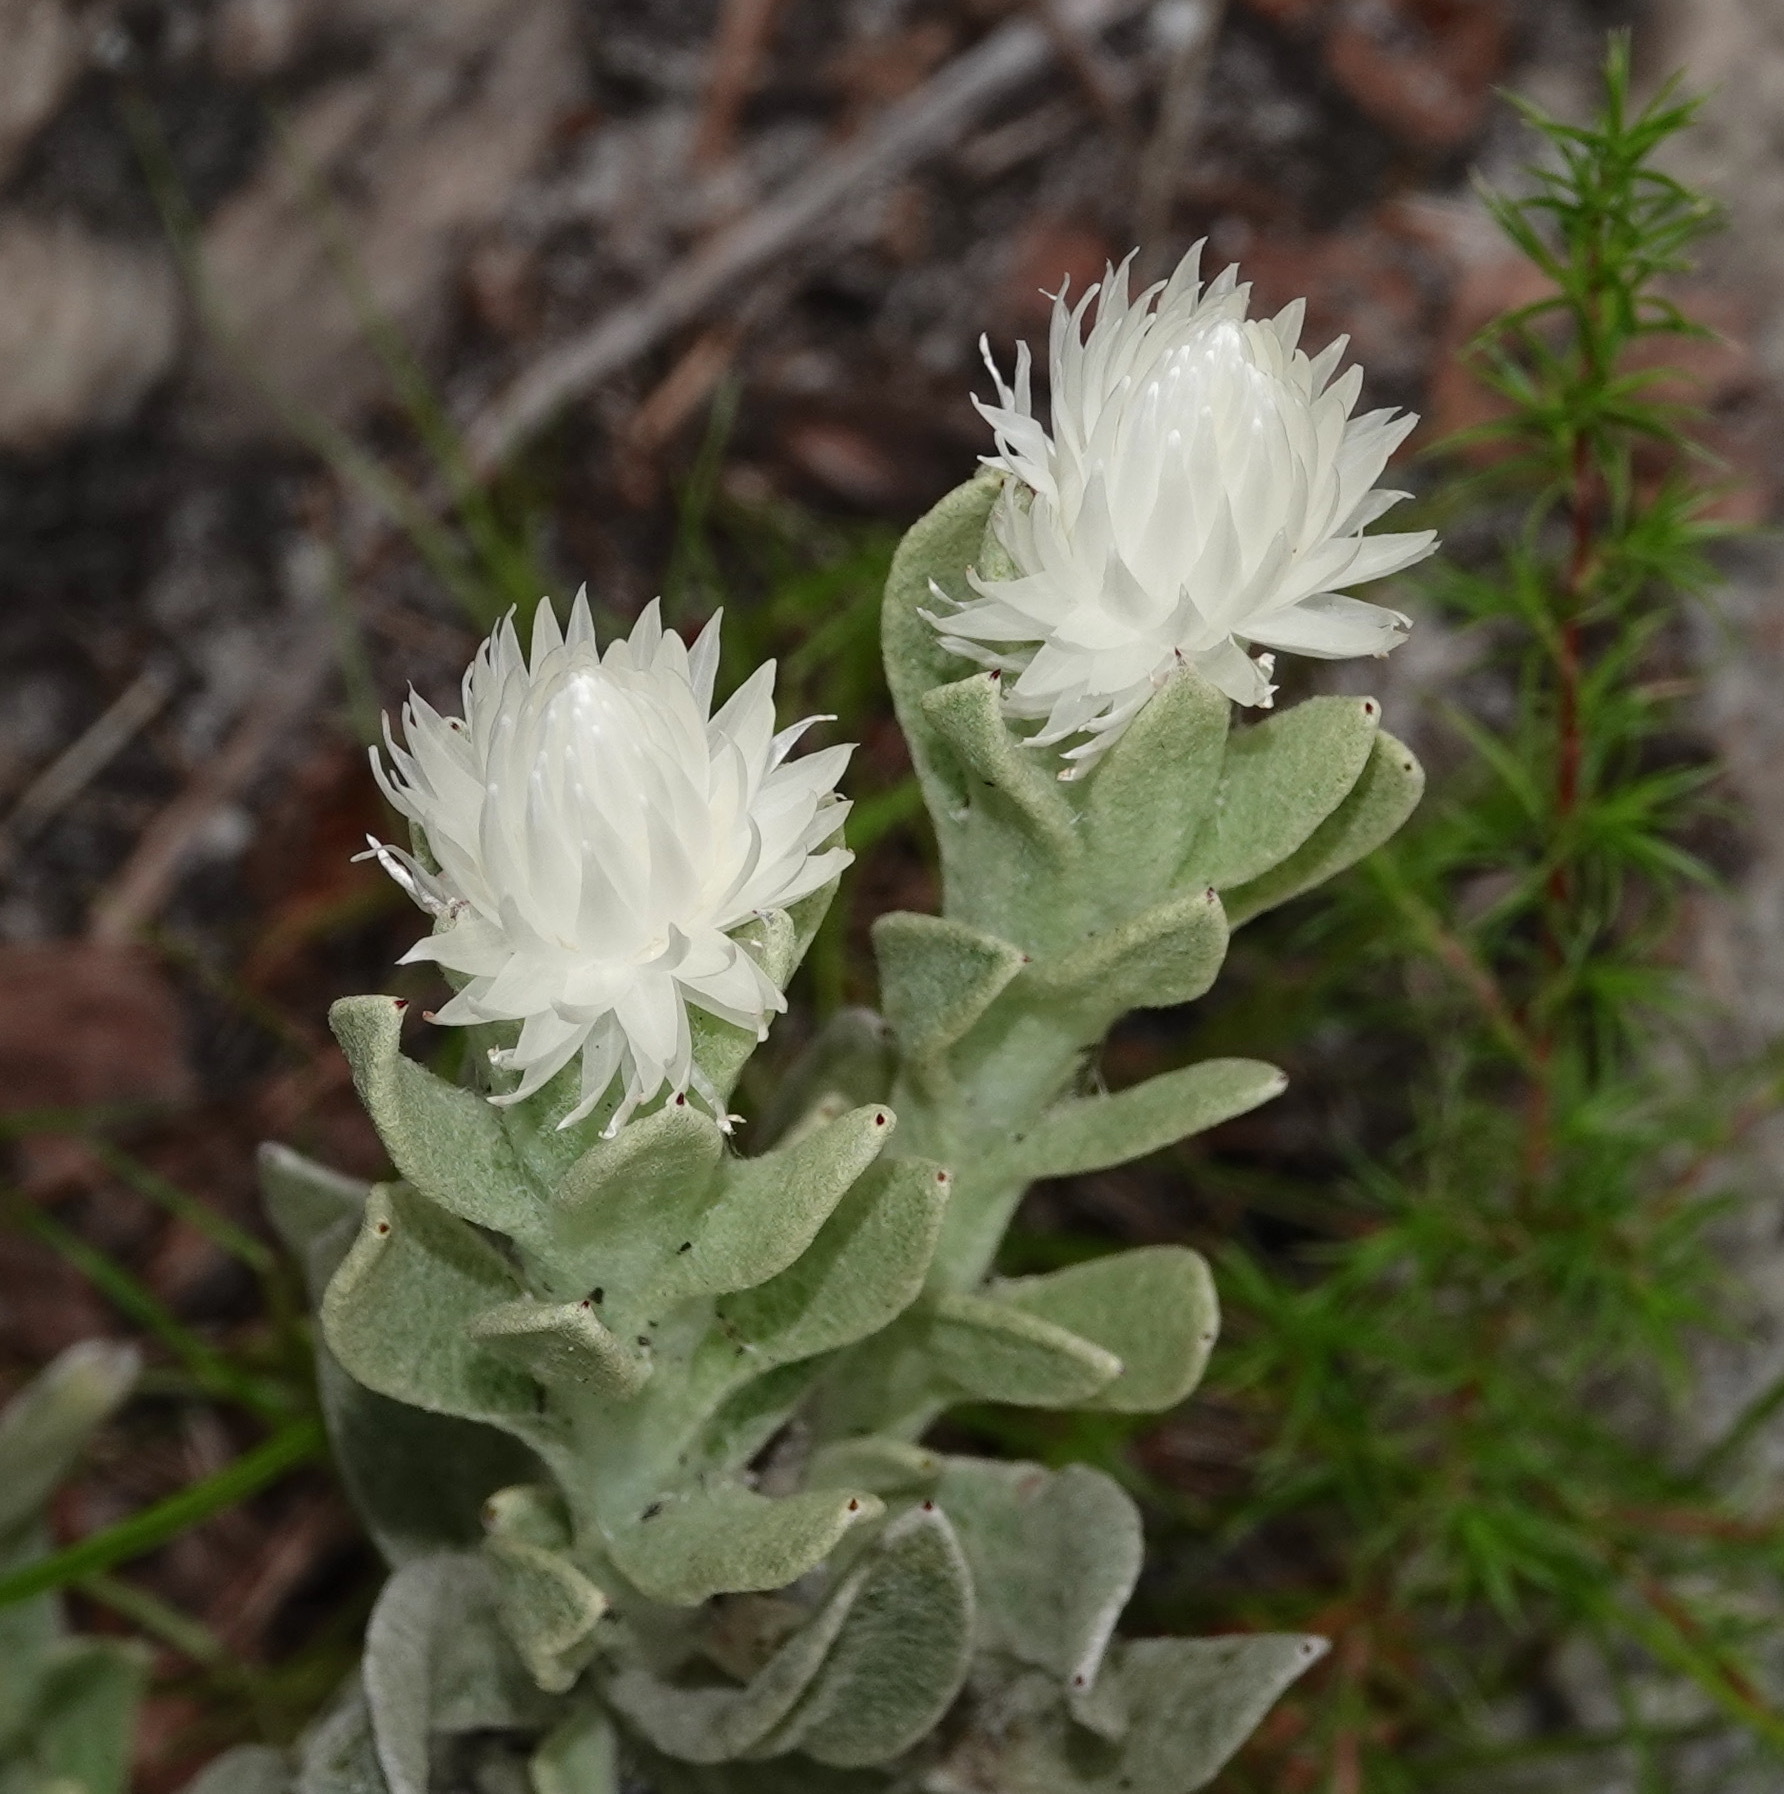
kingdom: Plantae
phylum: Tracheophyta
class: Magnoliopsida
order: Asterales
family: Asteraceae
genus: Syncarpha
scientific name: Syncarpha vestita
